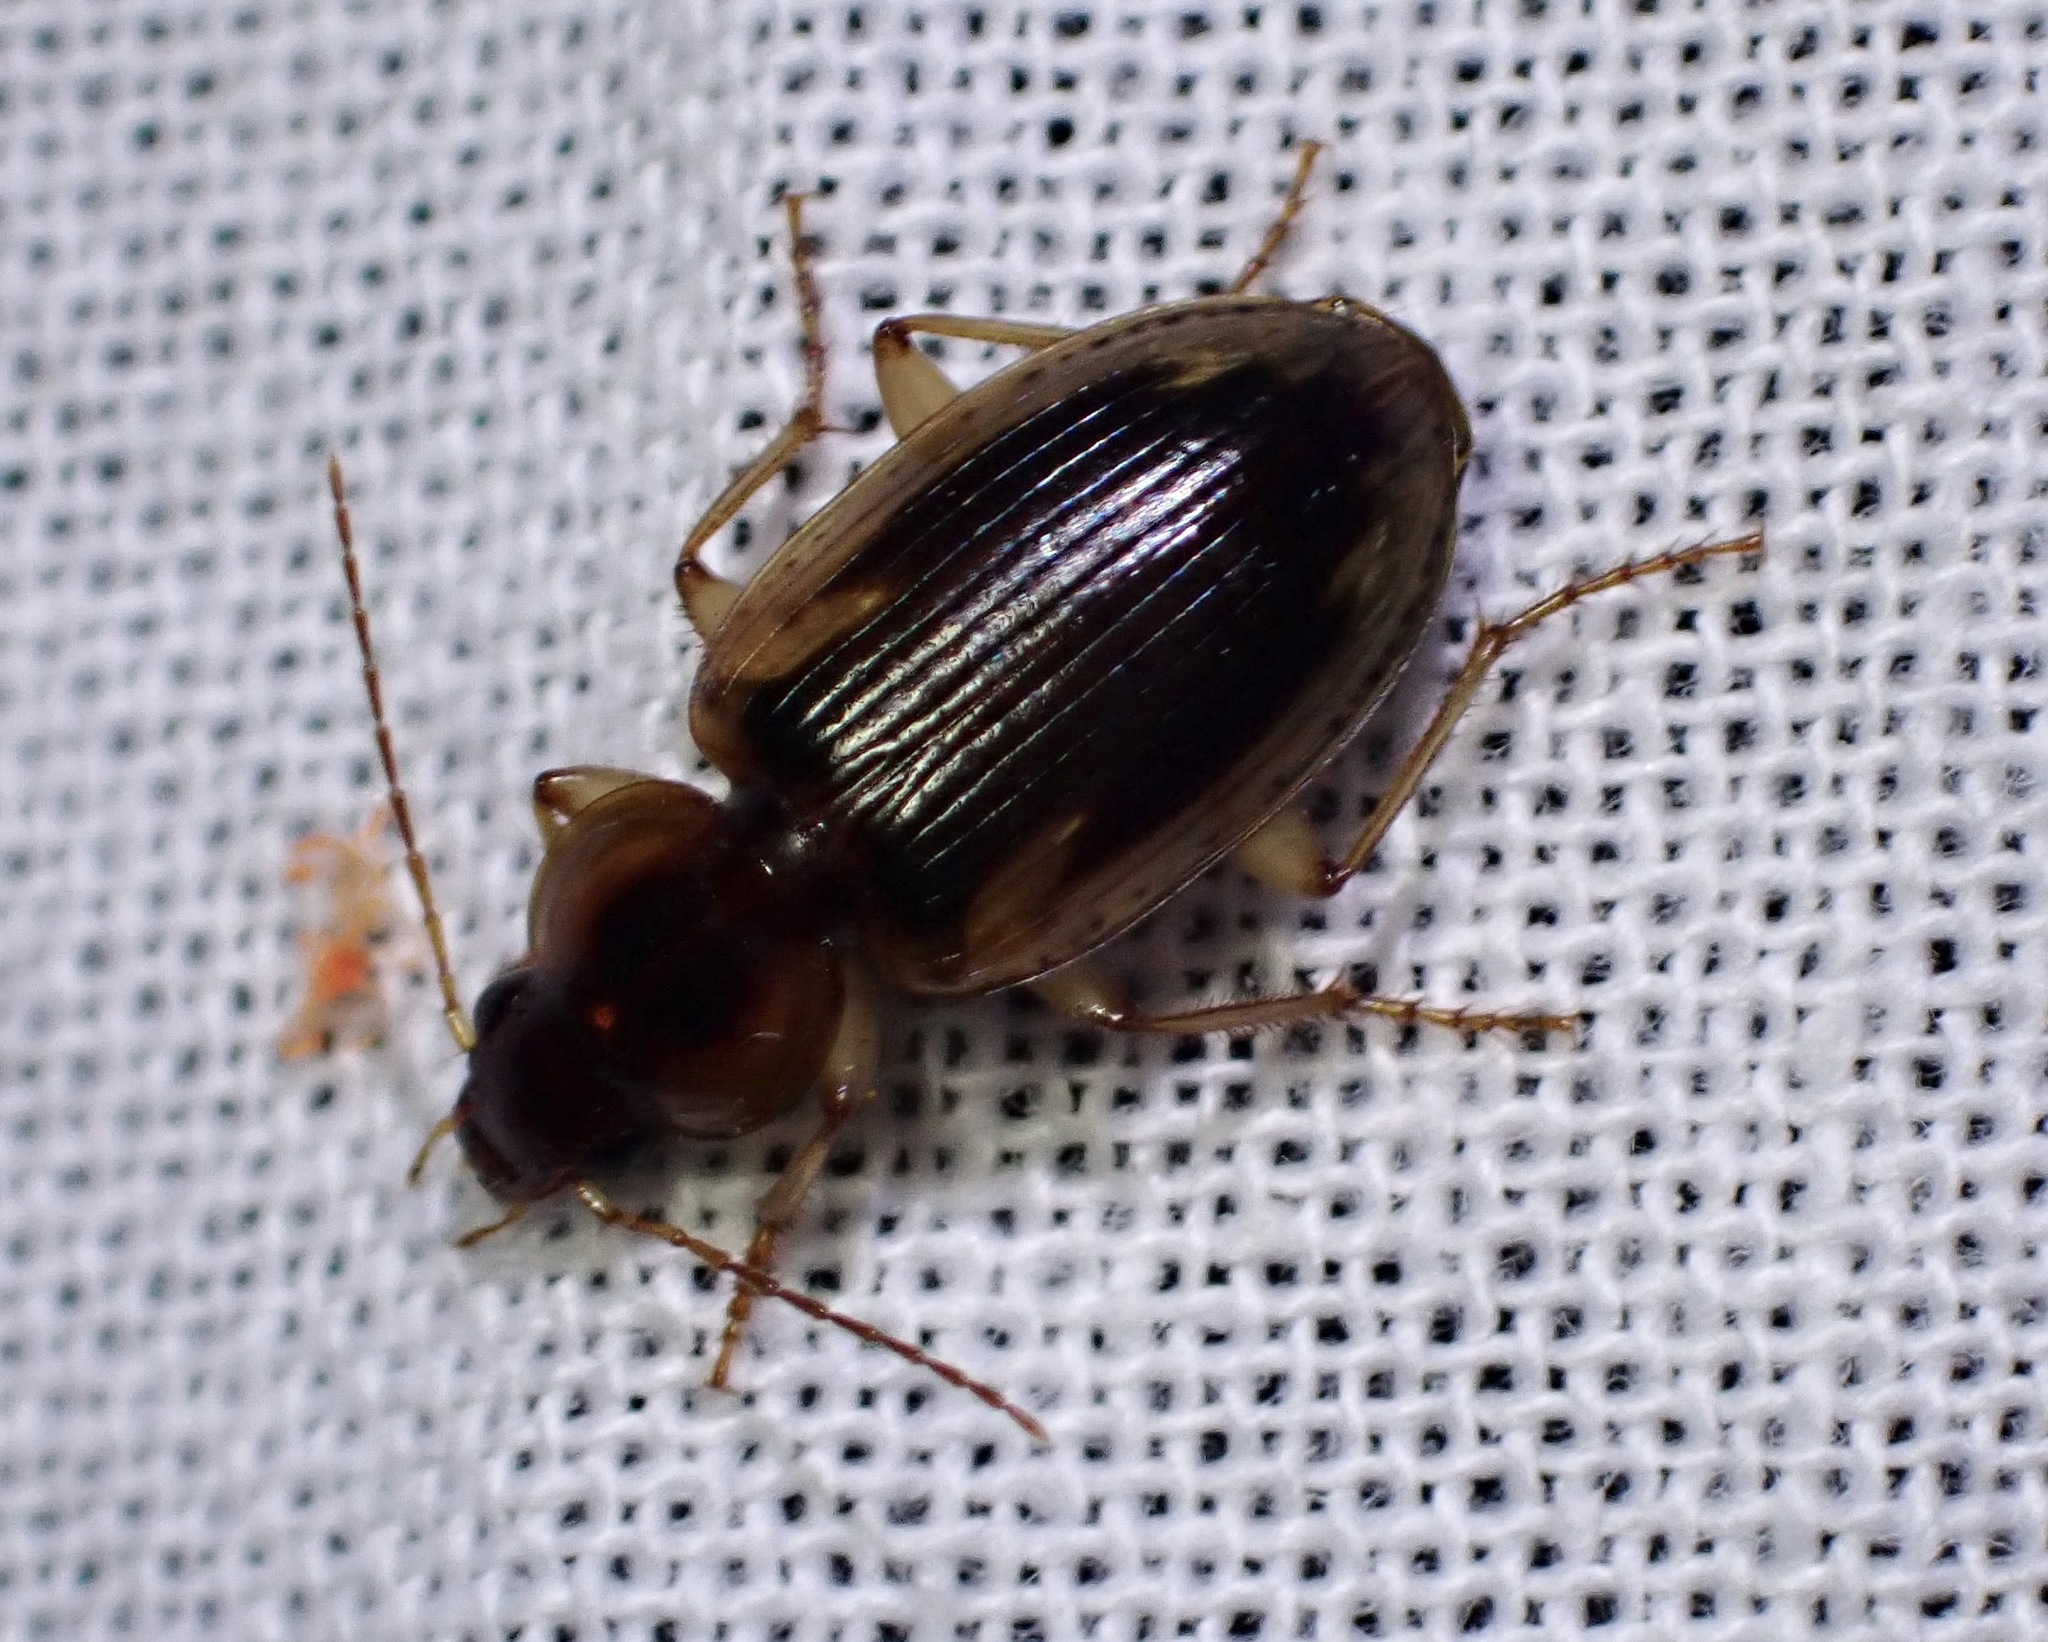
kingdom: Animalia
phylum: Arthropoda
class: Insecta
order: Coleoptera
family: Carabidae
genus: Tanystoma
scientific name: Tanystoma maculicolle
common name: Tule beetle
